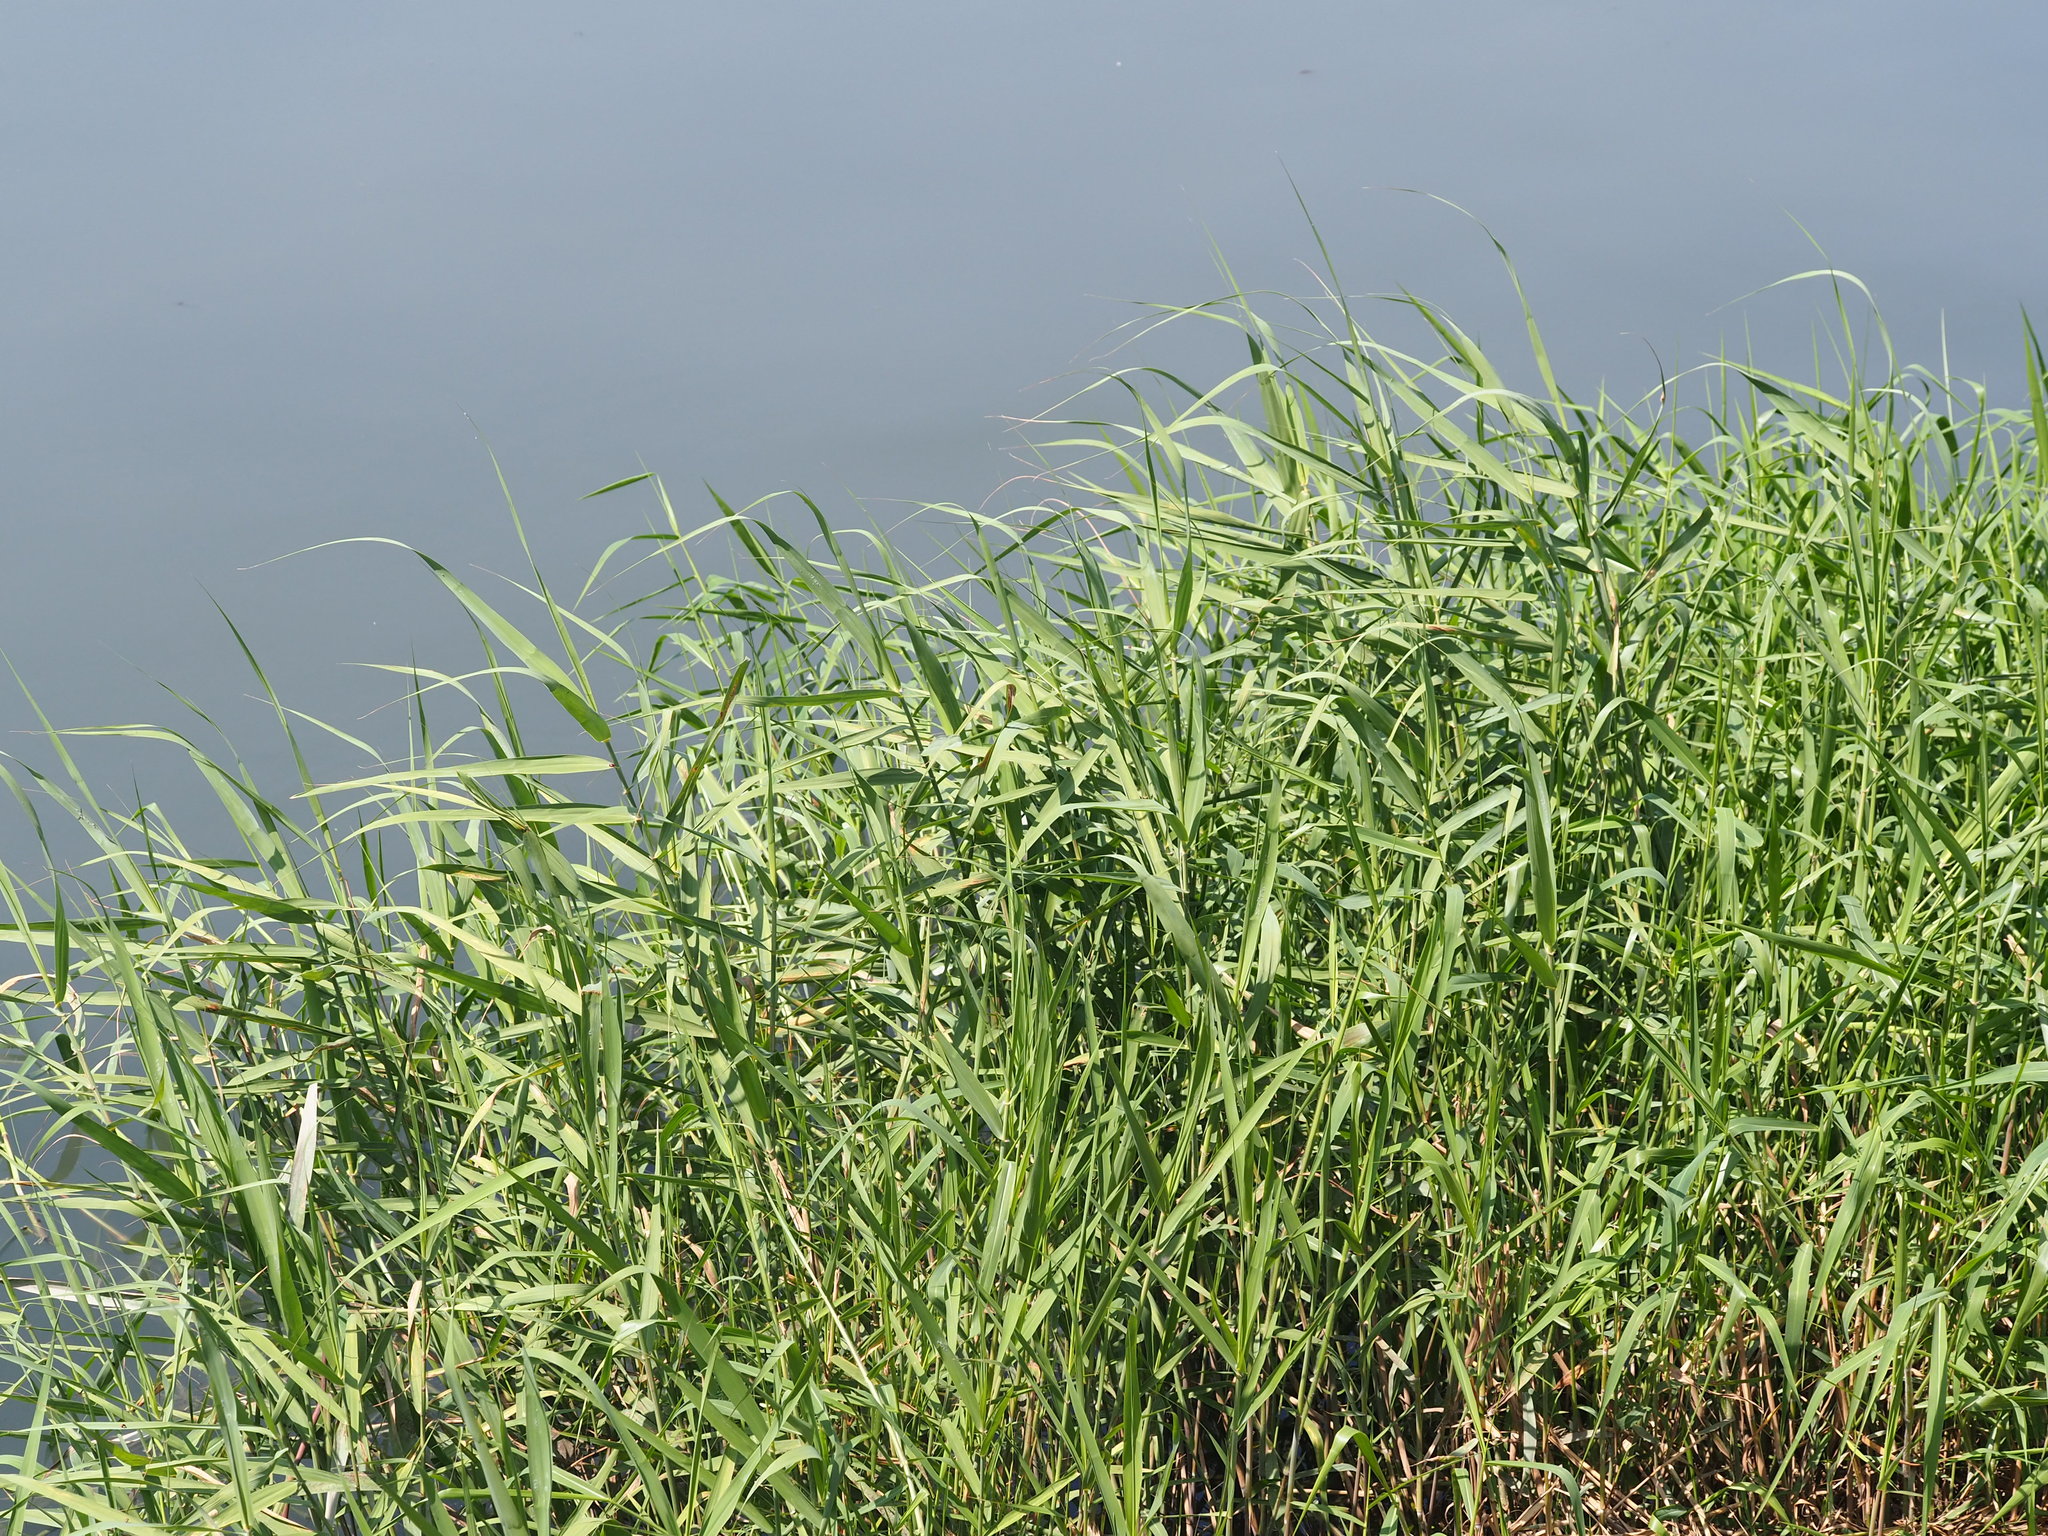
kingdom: Plantae
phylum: Tracheophyta
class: Liliopsida
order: Poales
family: Poaceae
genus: Phragmites
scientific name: Phragmites australis
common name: Common reed
